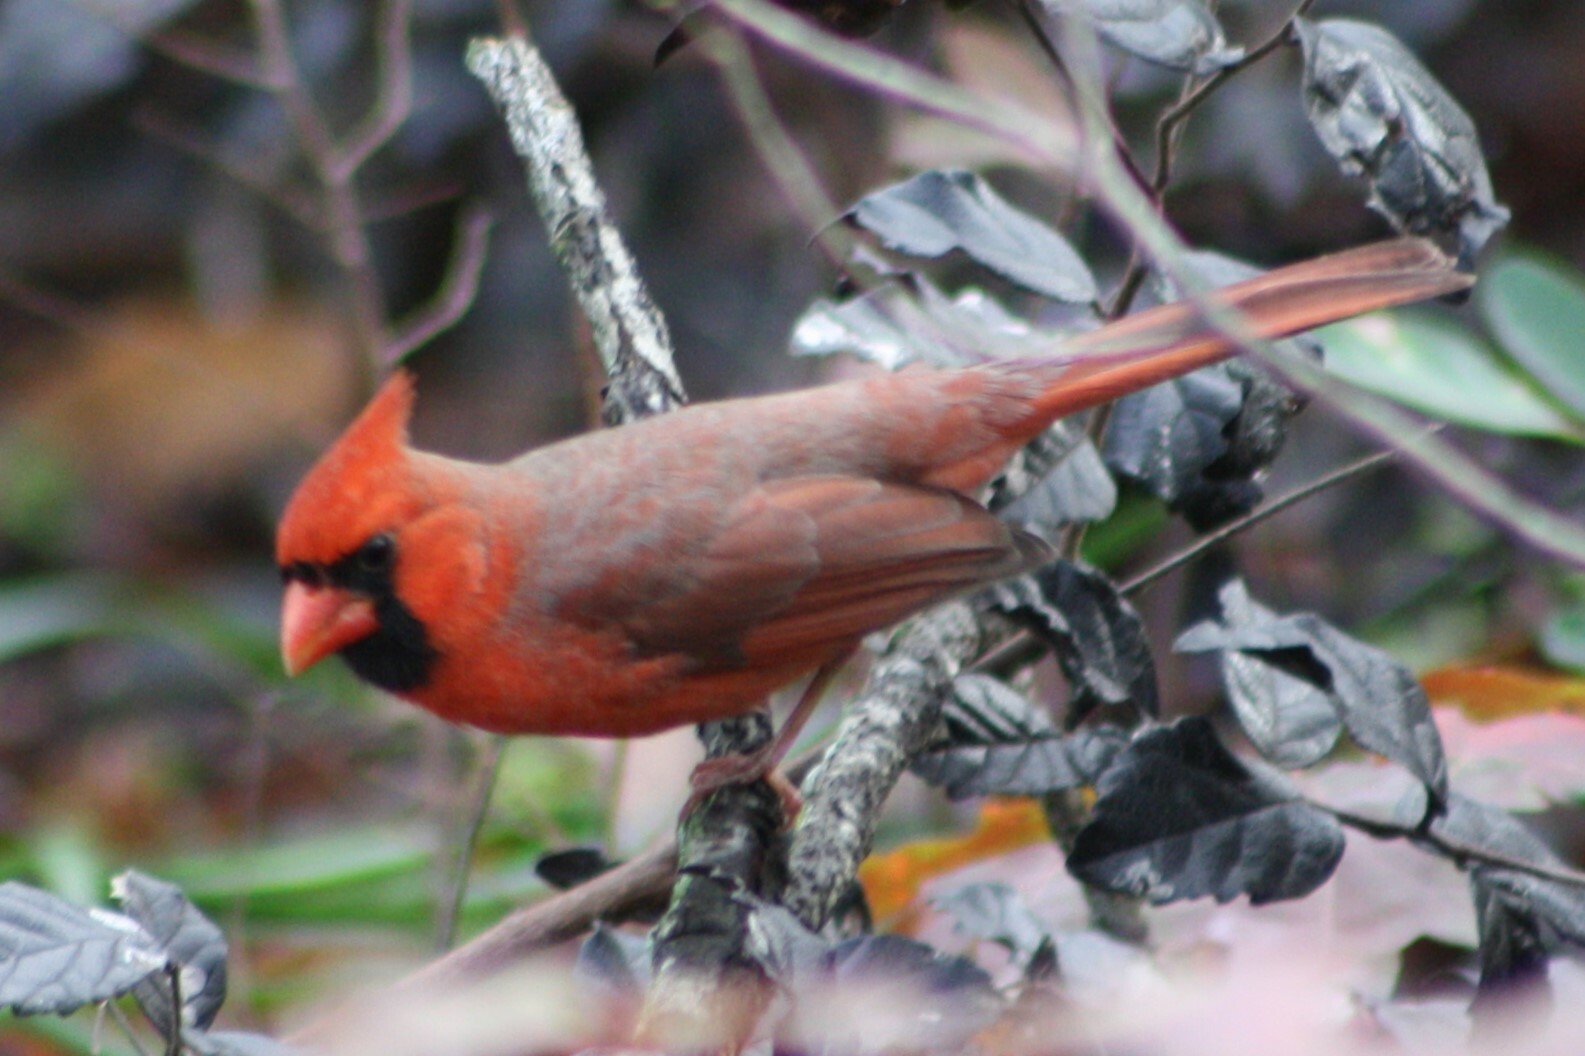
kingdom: Animalia
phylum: Chordata
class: Aves
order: Passeriformes
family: Cardinalidae
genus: Cardinalis
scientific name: Cardinalis cardinalis
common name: Northern cardinal
